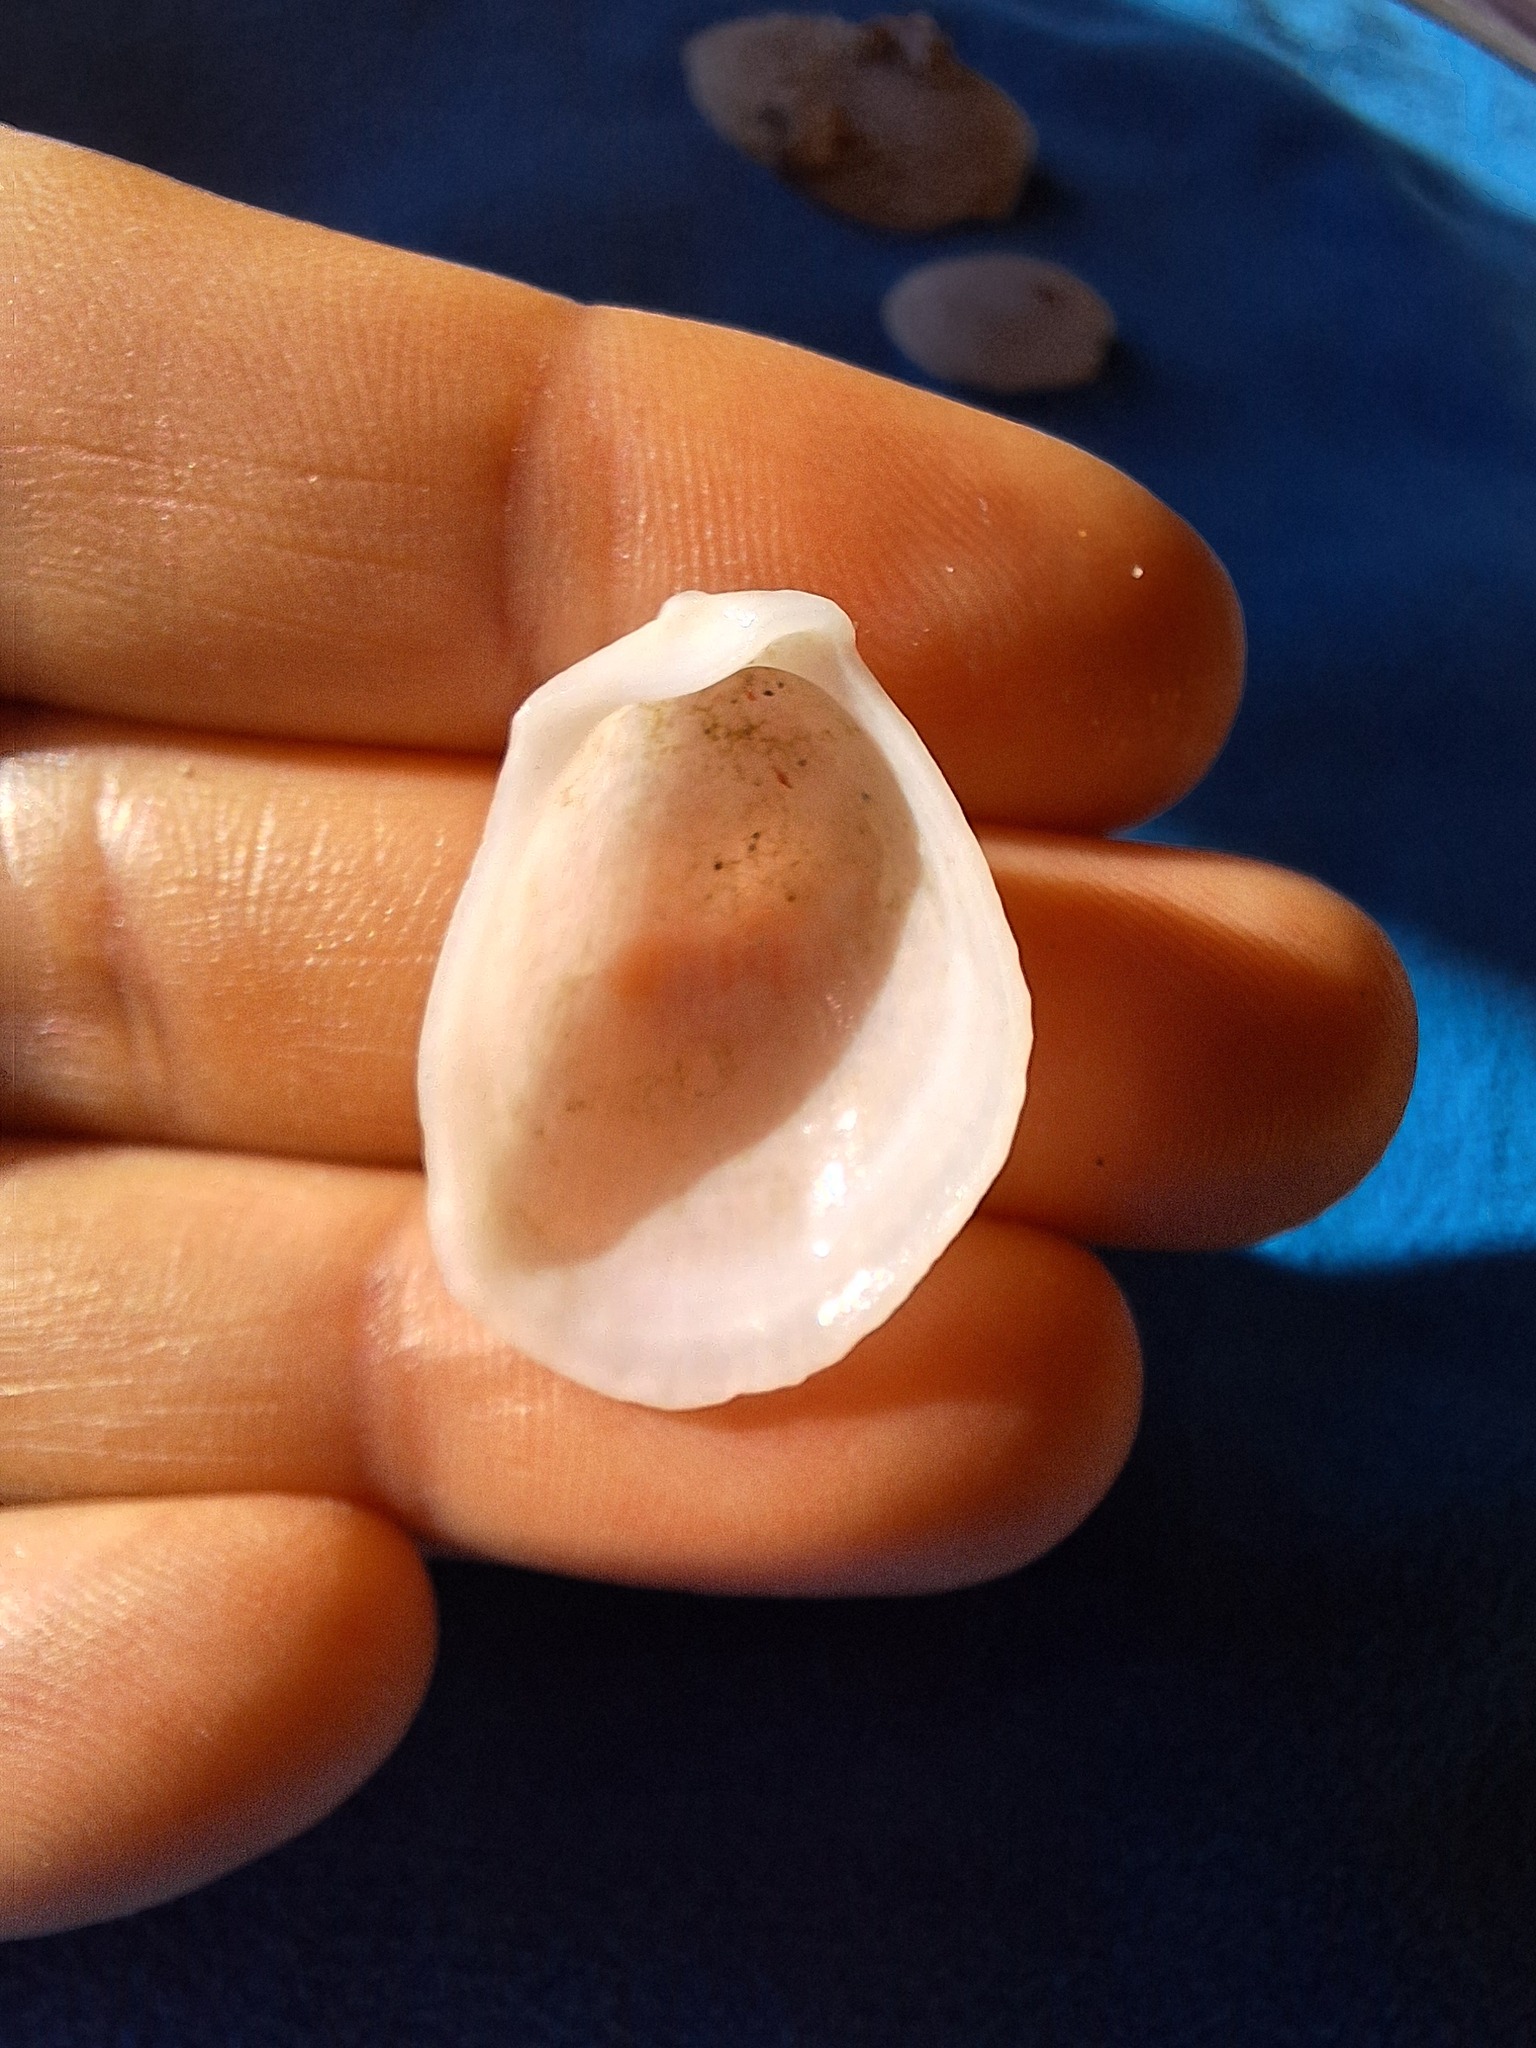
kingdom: Animalia
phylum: Mollusca
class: Bivalvia
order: Limida
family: Limidae
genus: Limaria
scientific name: Limaria tuberculata
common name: File shell
